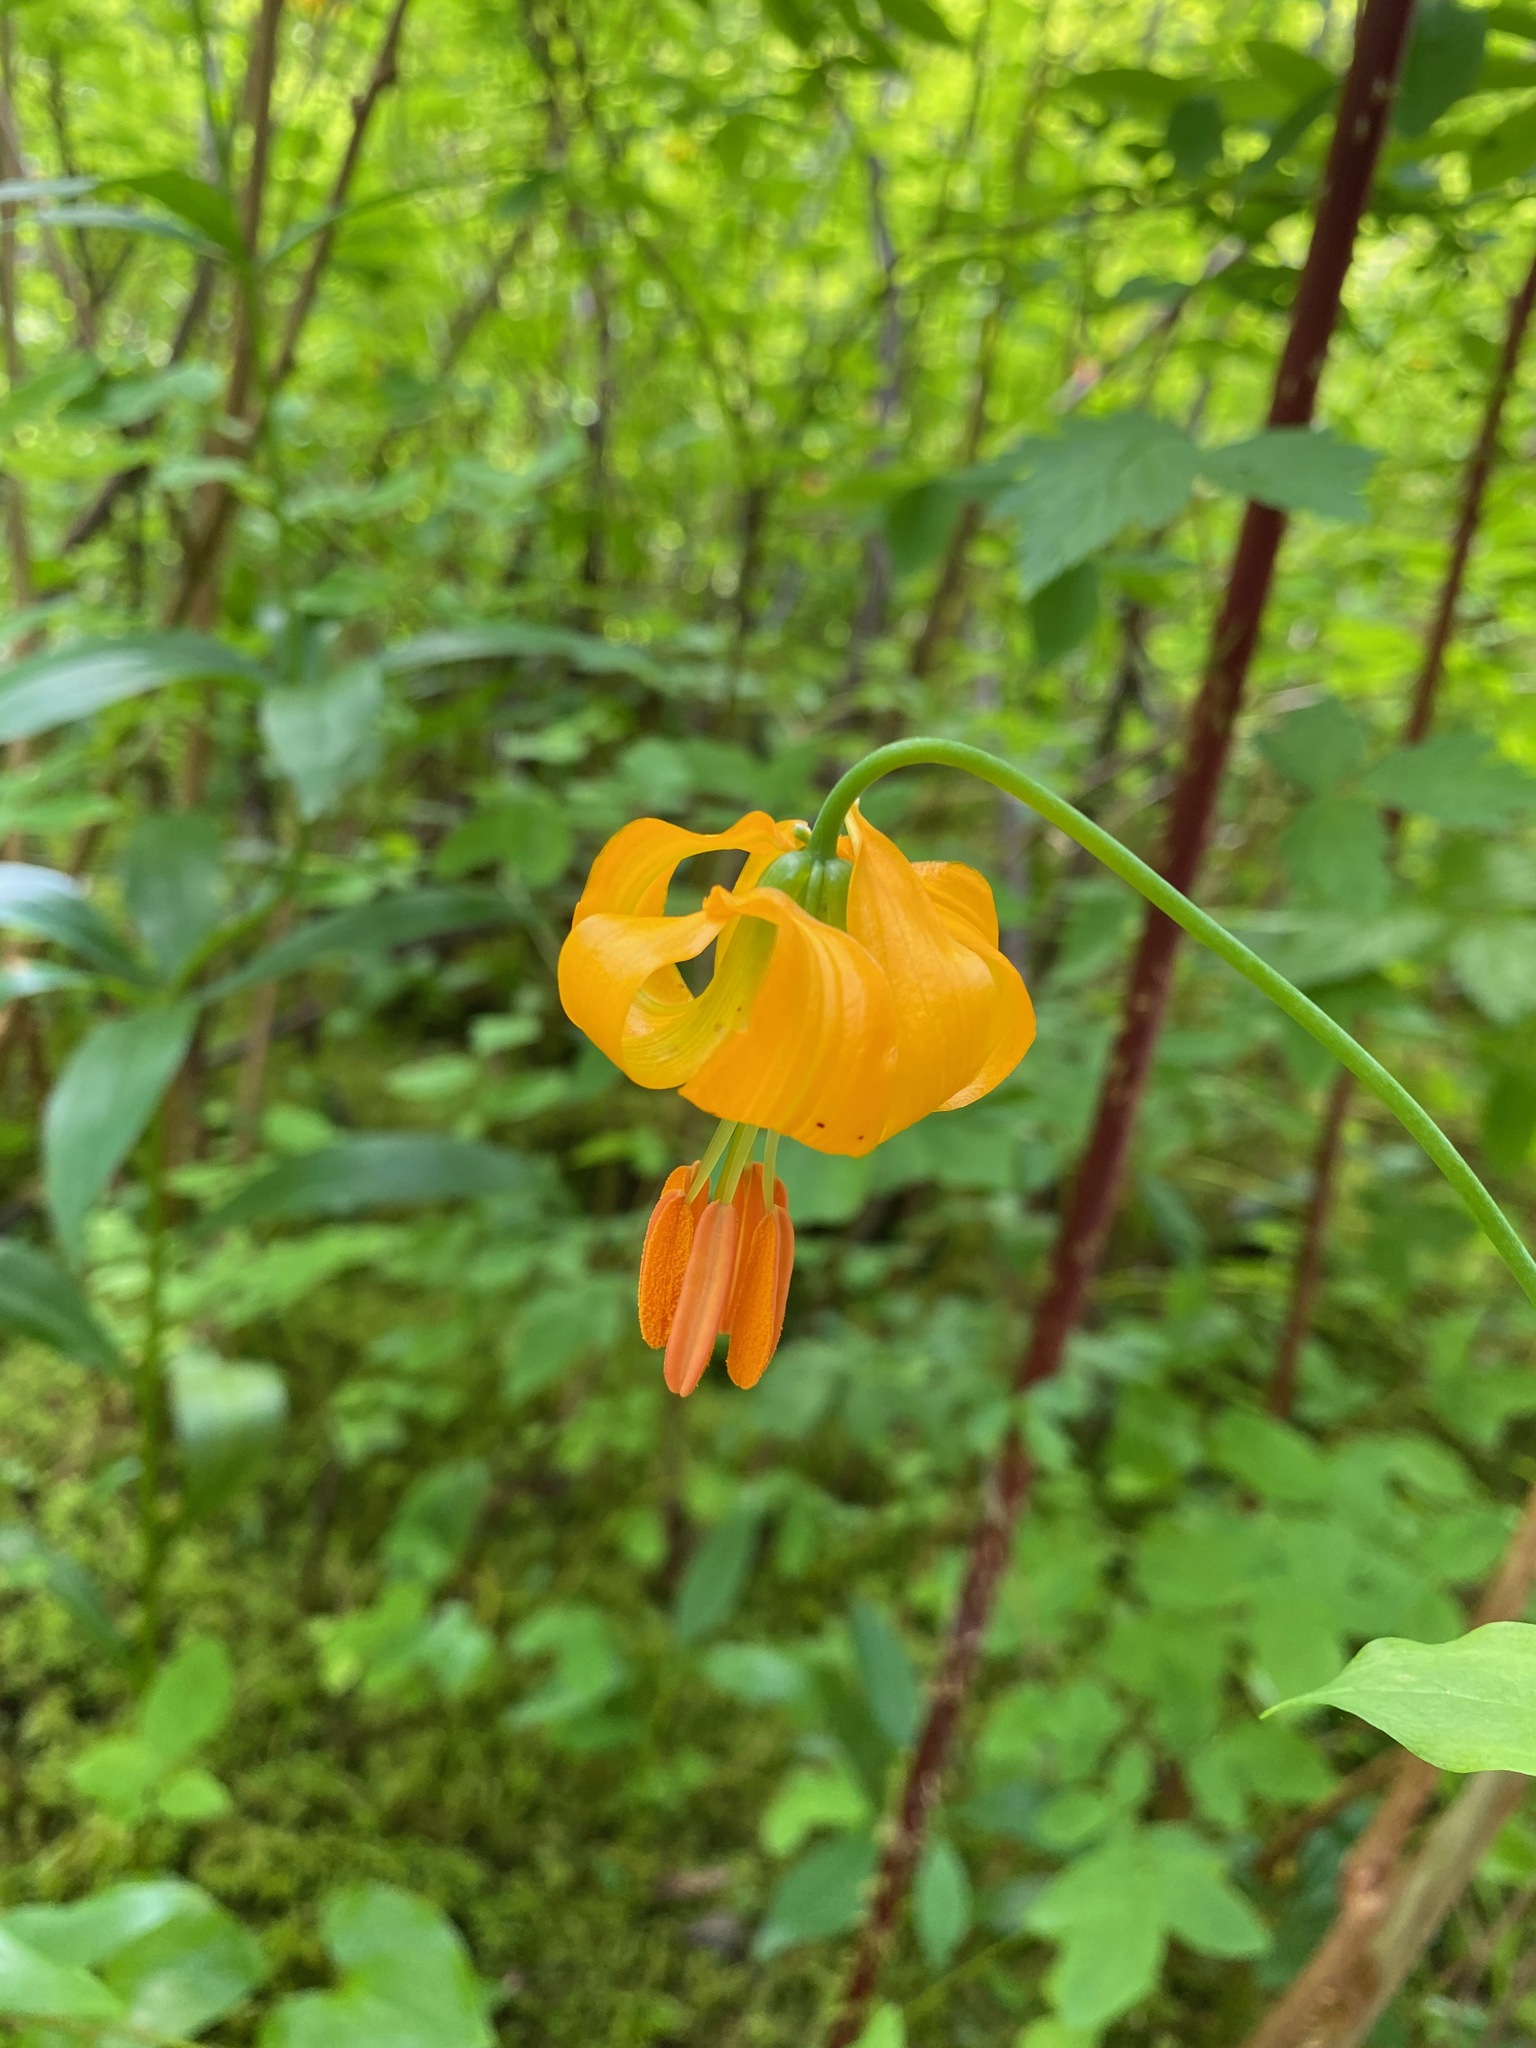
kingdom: Plantae
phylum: Tracheophyta
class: Liliopsida
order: Liliales
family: Liliaceae
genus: Lilium
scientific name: Lilium columbianum
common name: Columbia lily
